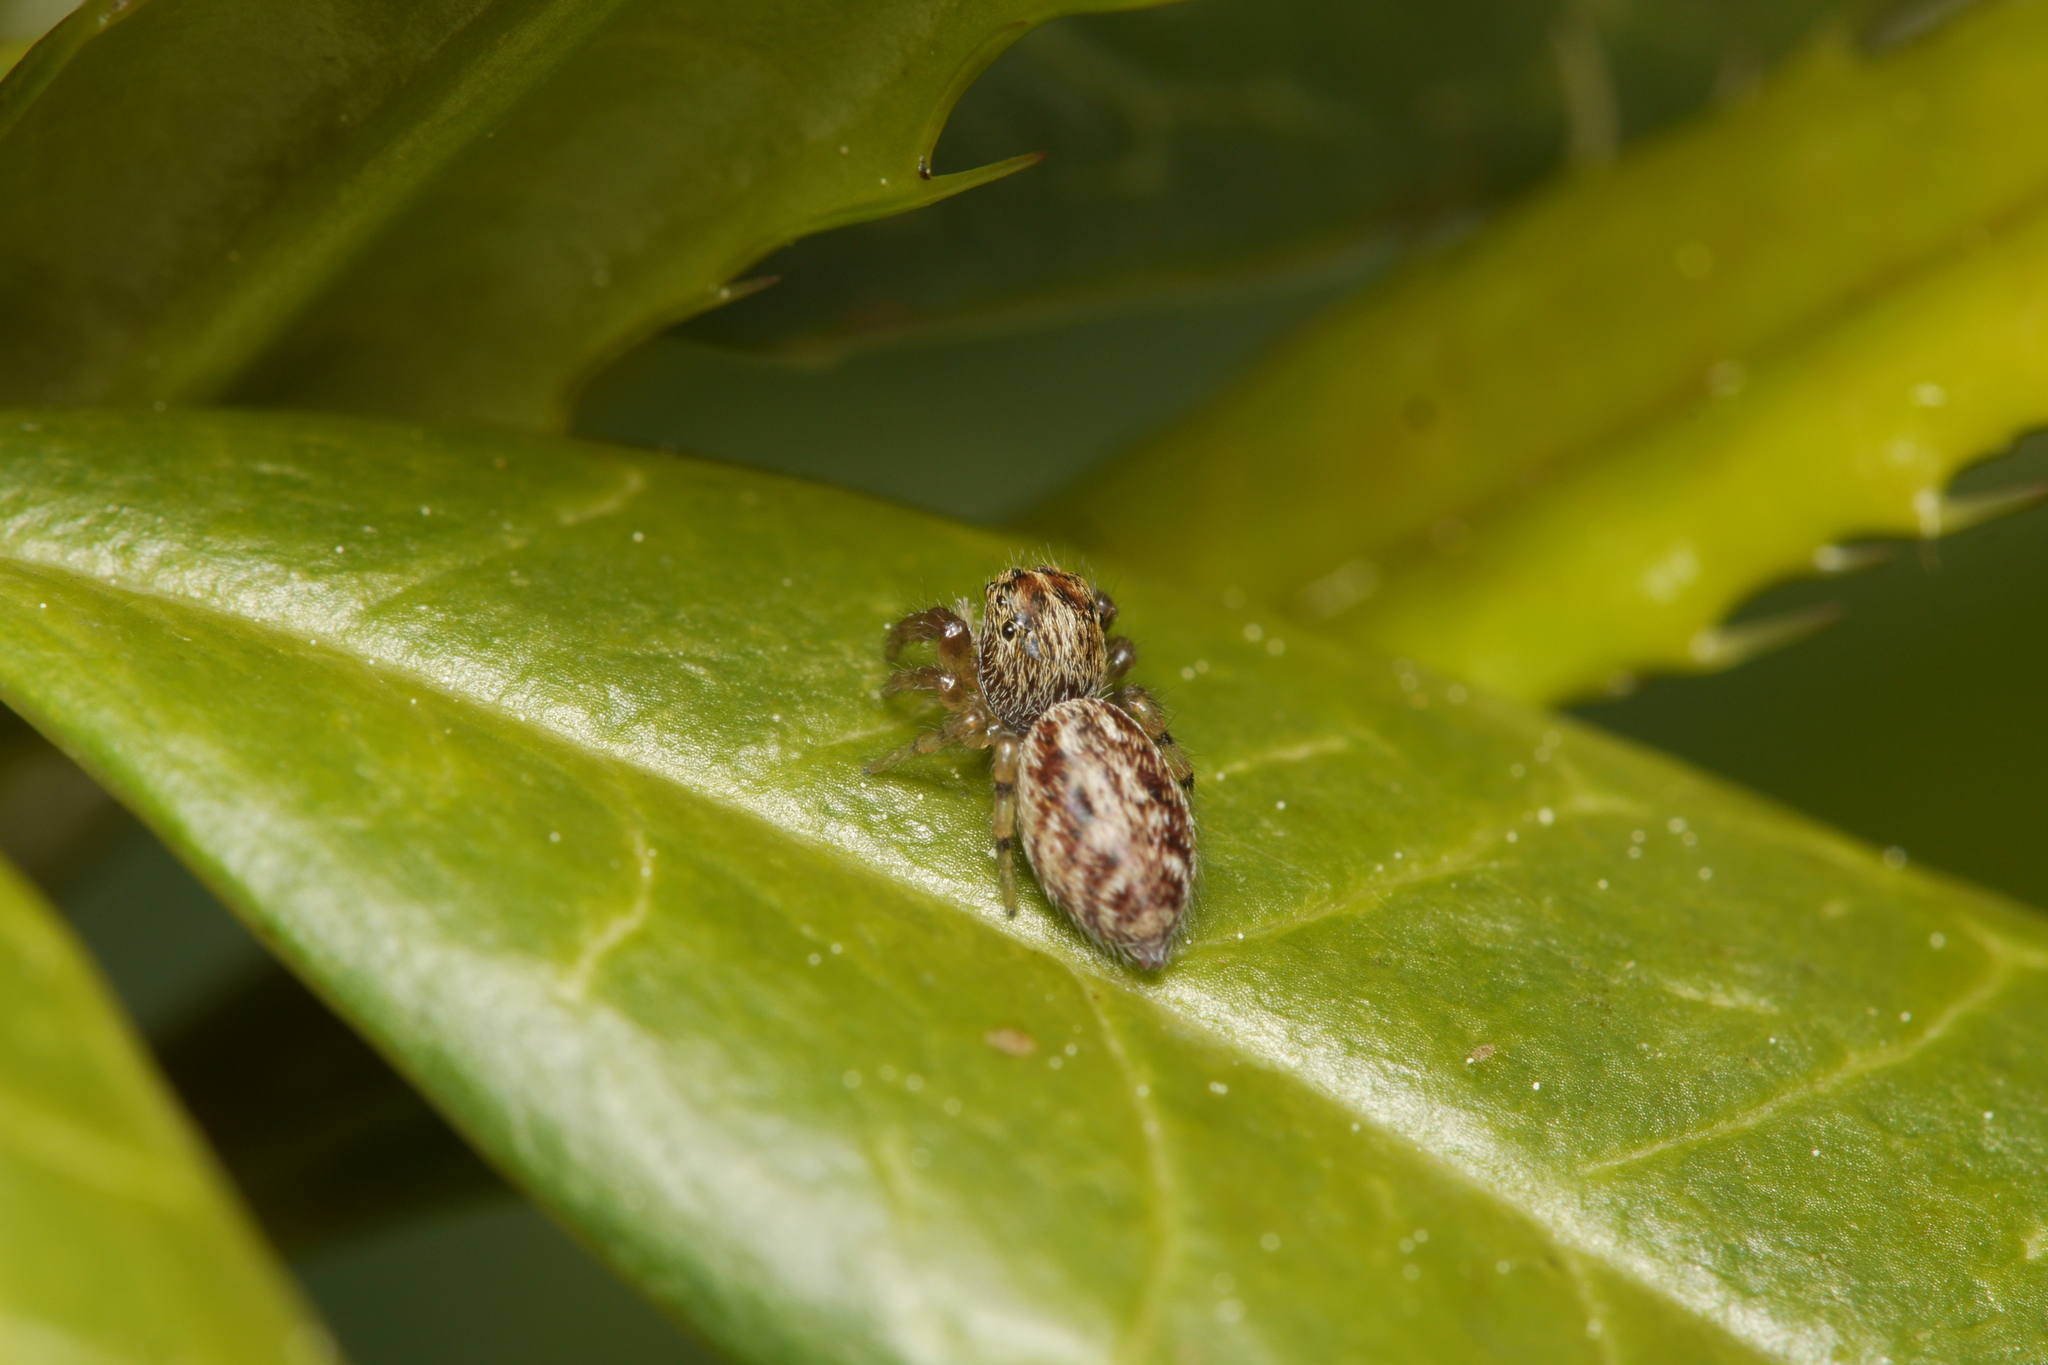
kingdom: Animalia
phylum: Arthropoda
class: Arachnida
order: Araneae
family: Salticidae
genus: Macaroeris
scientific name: Macaroeris nidicolens
